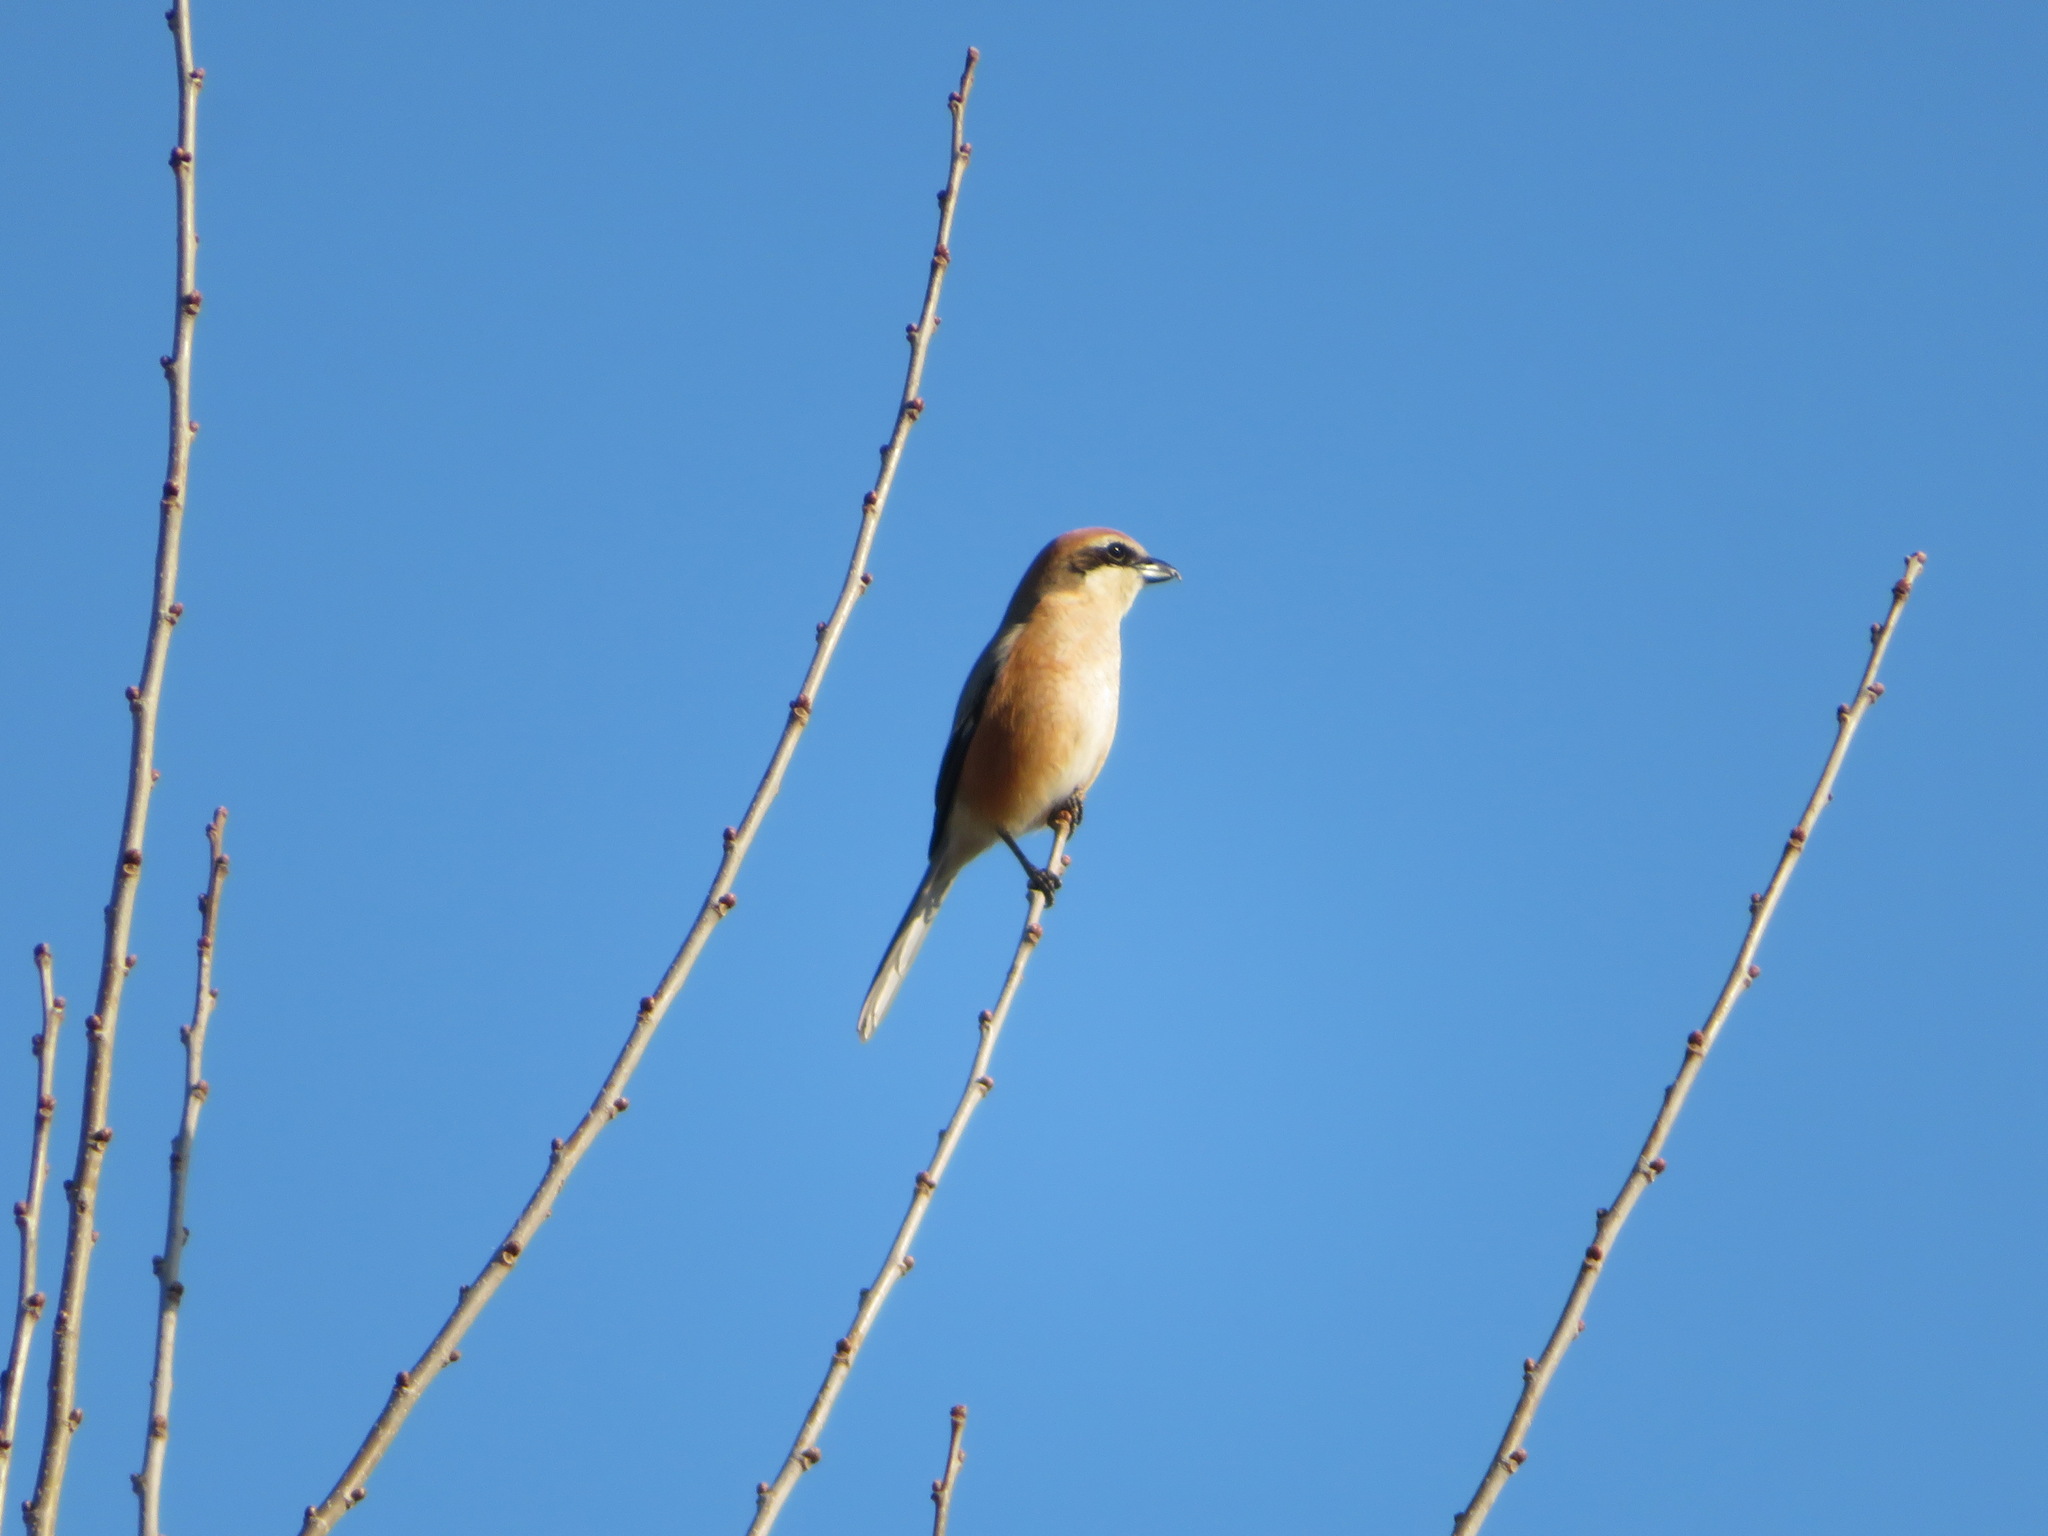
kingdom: Animalia
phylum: Chordata
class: Aves
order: Passeriformes
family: Laniidae
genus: Lanius
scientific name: Lanius bucephalus
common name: Bull-headed shrike
